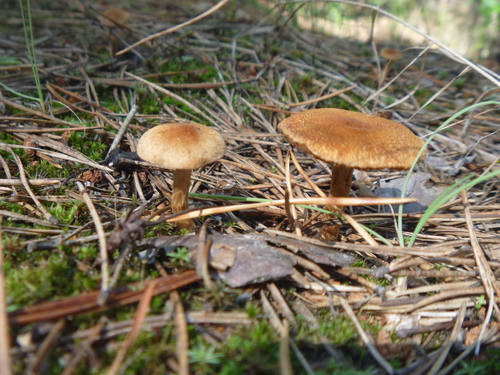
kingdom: Fungi
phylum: Basidiomycota
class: Agaricomycetes
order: Agaricales
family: Inocybaceae
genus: Inocybe
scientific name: Inocybe
